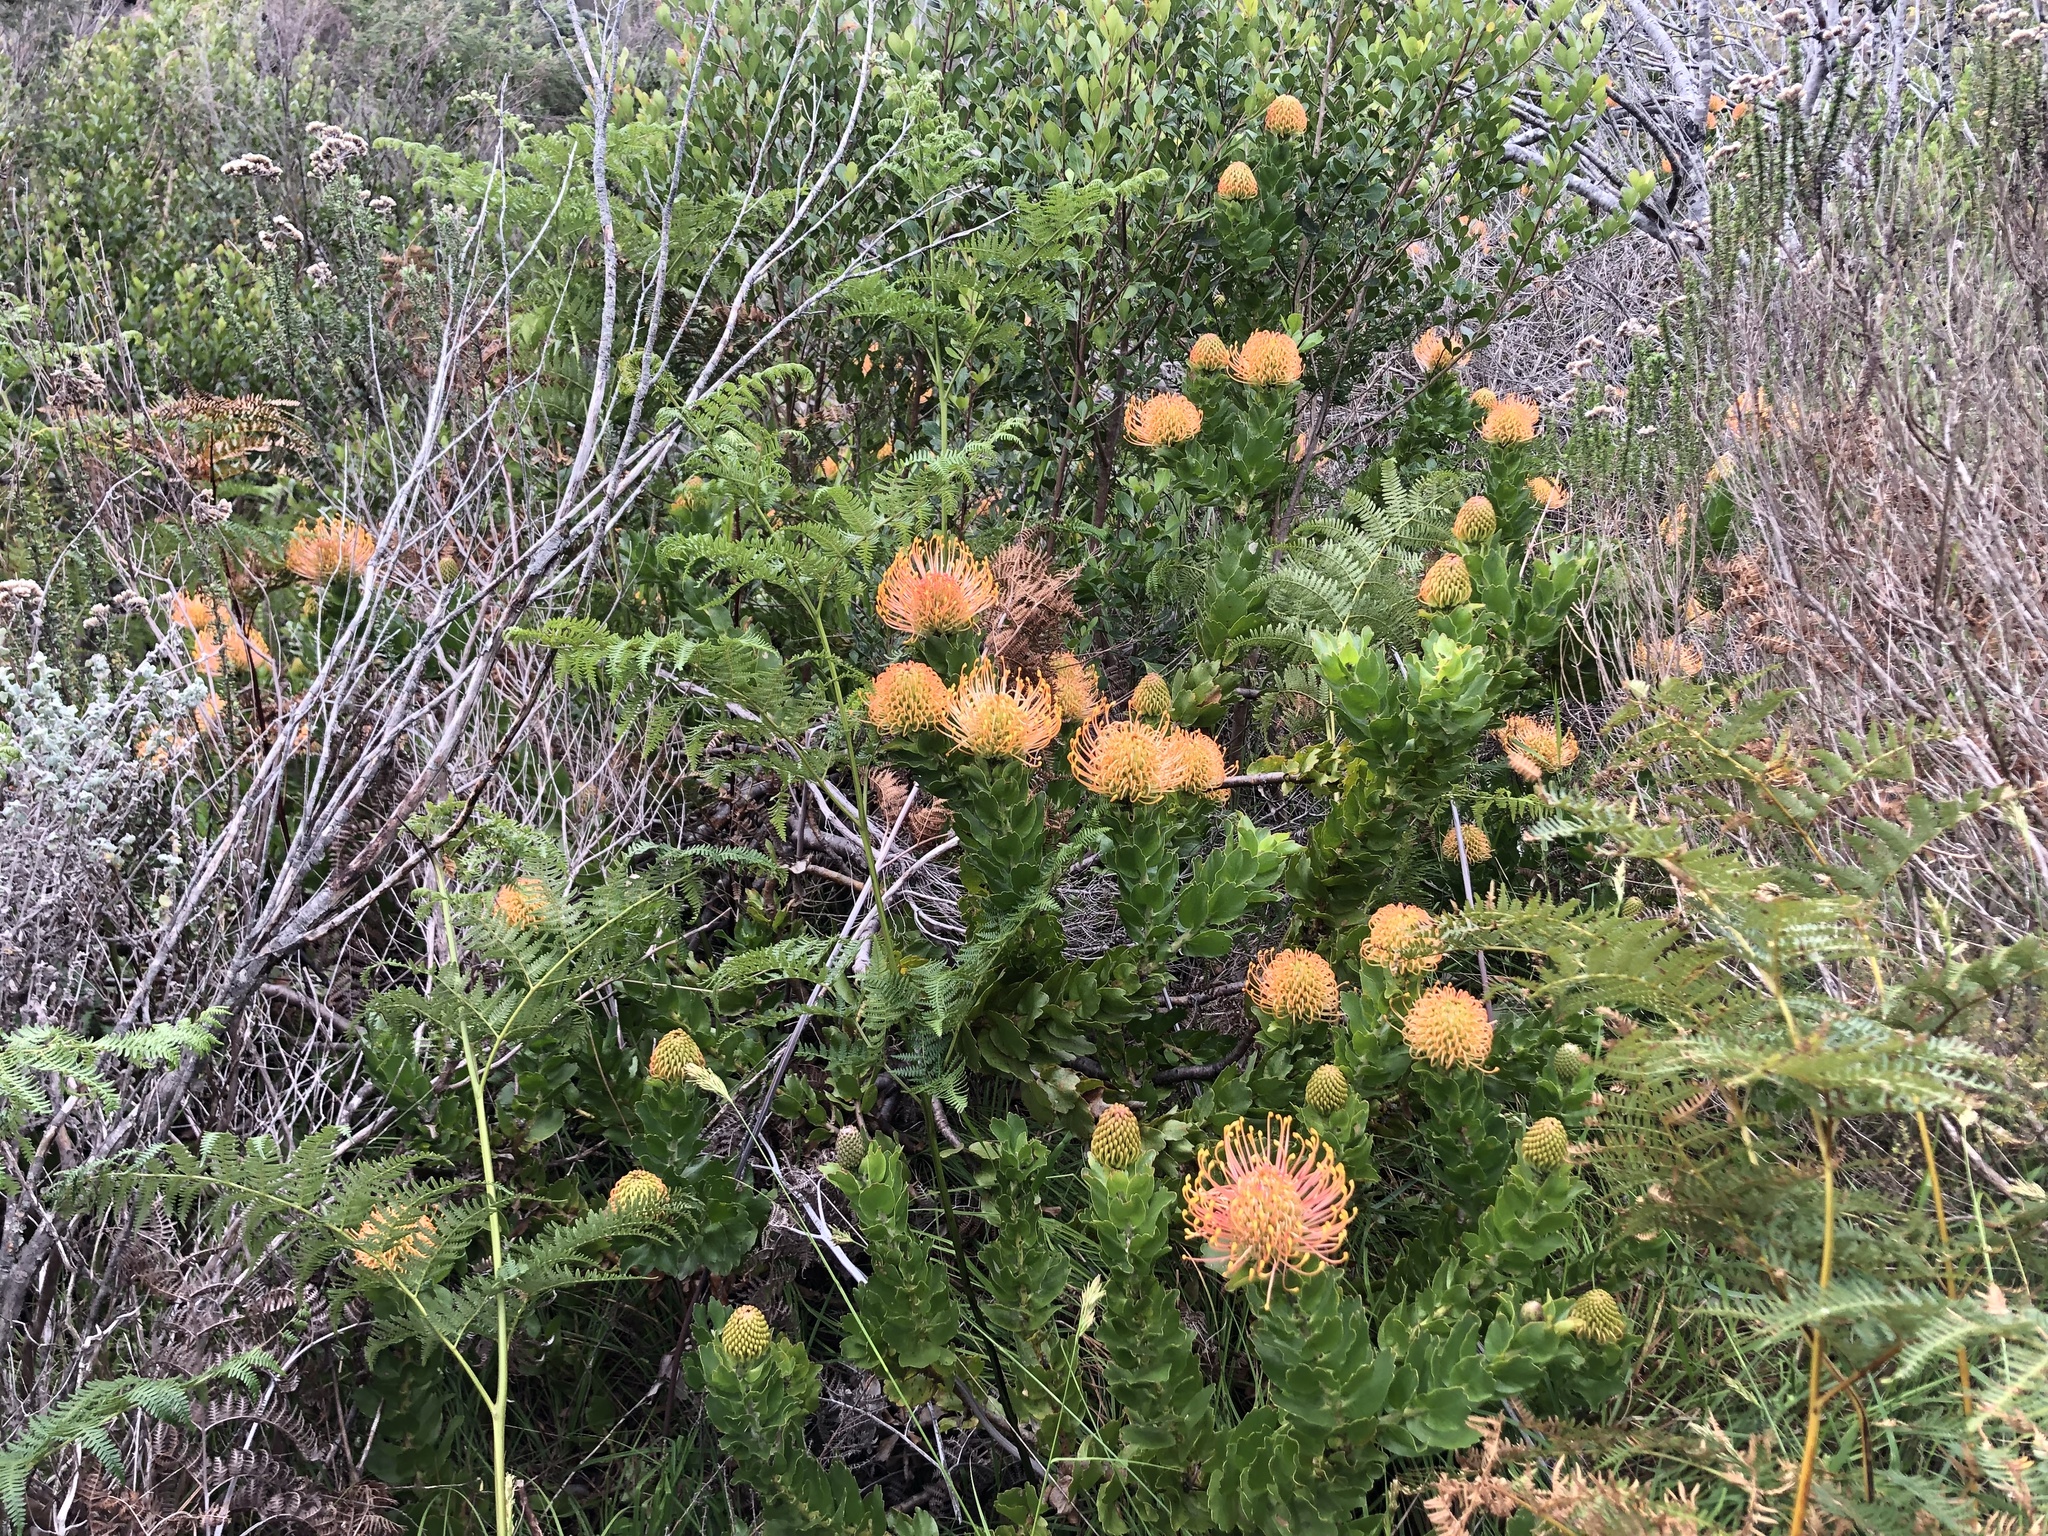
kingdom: Plantae
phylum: Tracheophyta
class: Magnoliopsida
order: Proteales
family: Proteaceae
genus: Leucospermum
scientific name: Leucospermum patersonii
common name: False tree pincushion
